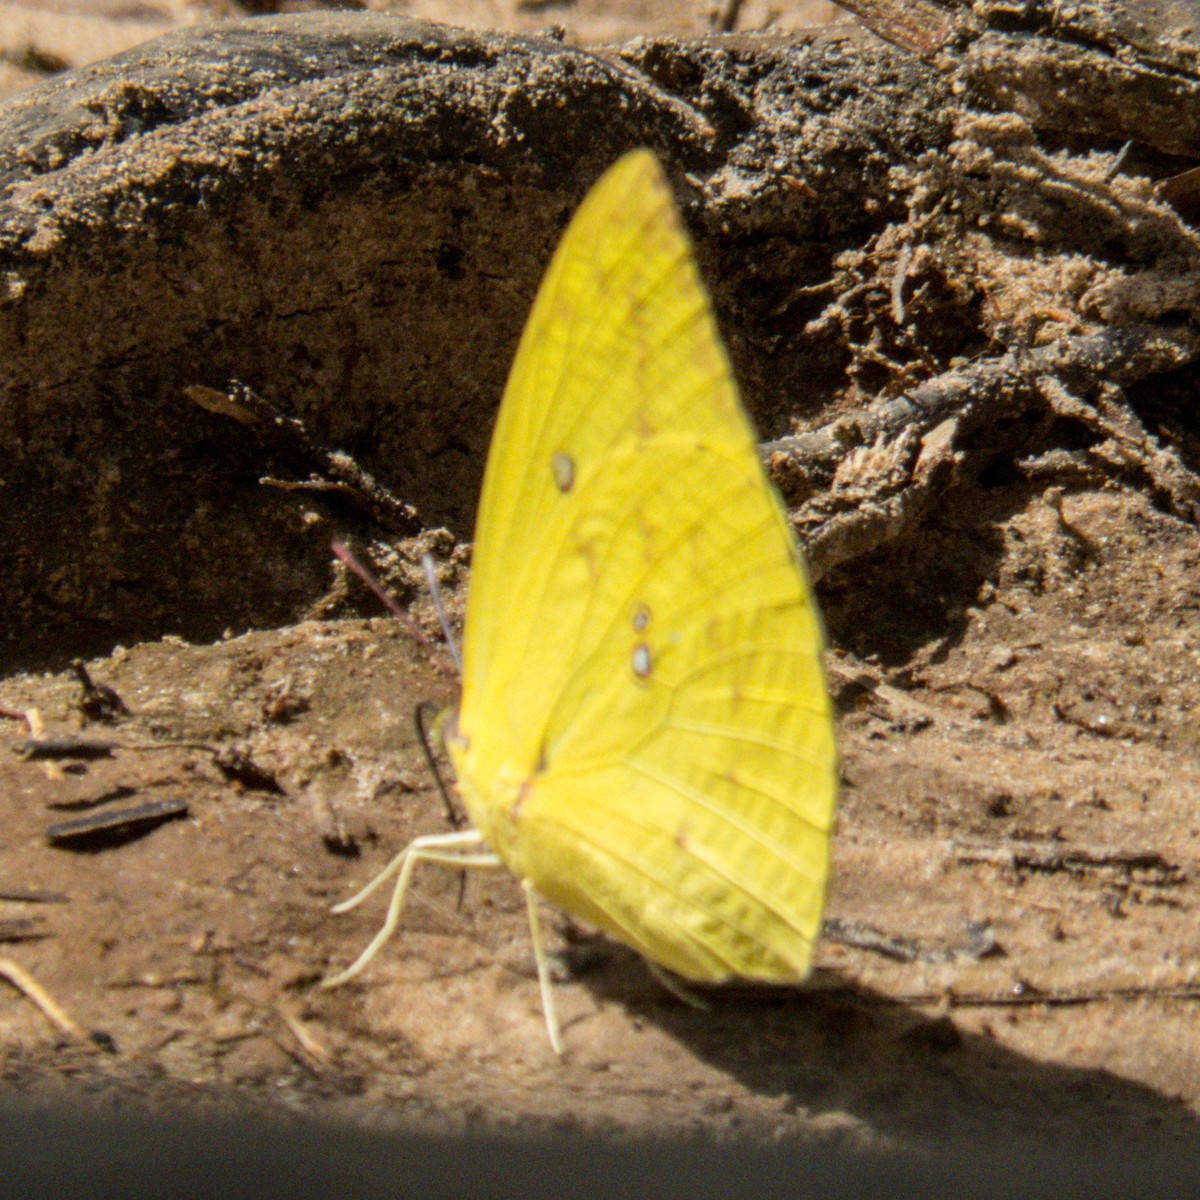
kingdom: Animalia
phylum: Arthropoda
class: Insecta
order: Lepidoptera
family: Pieridae
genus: Catopsilia
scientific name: Catopsilia pomona
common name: Common emigrant
